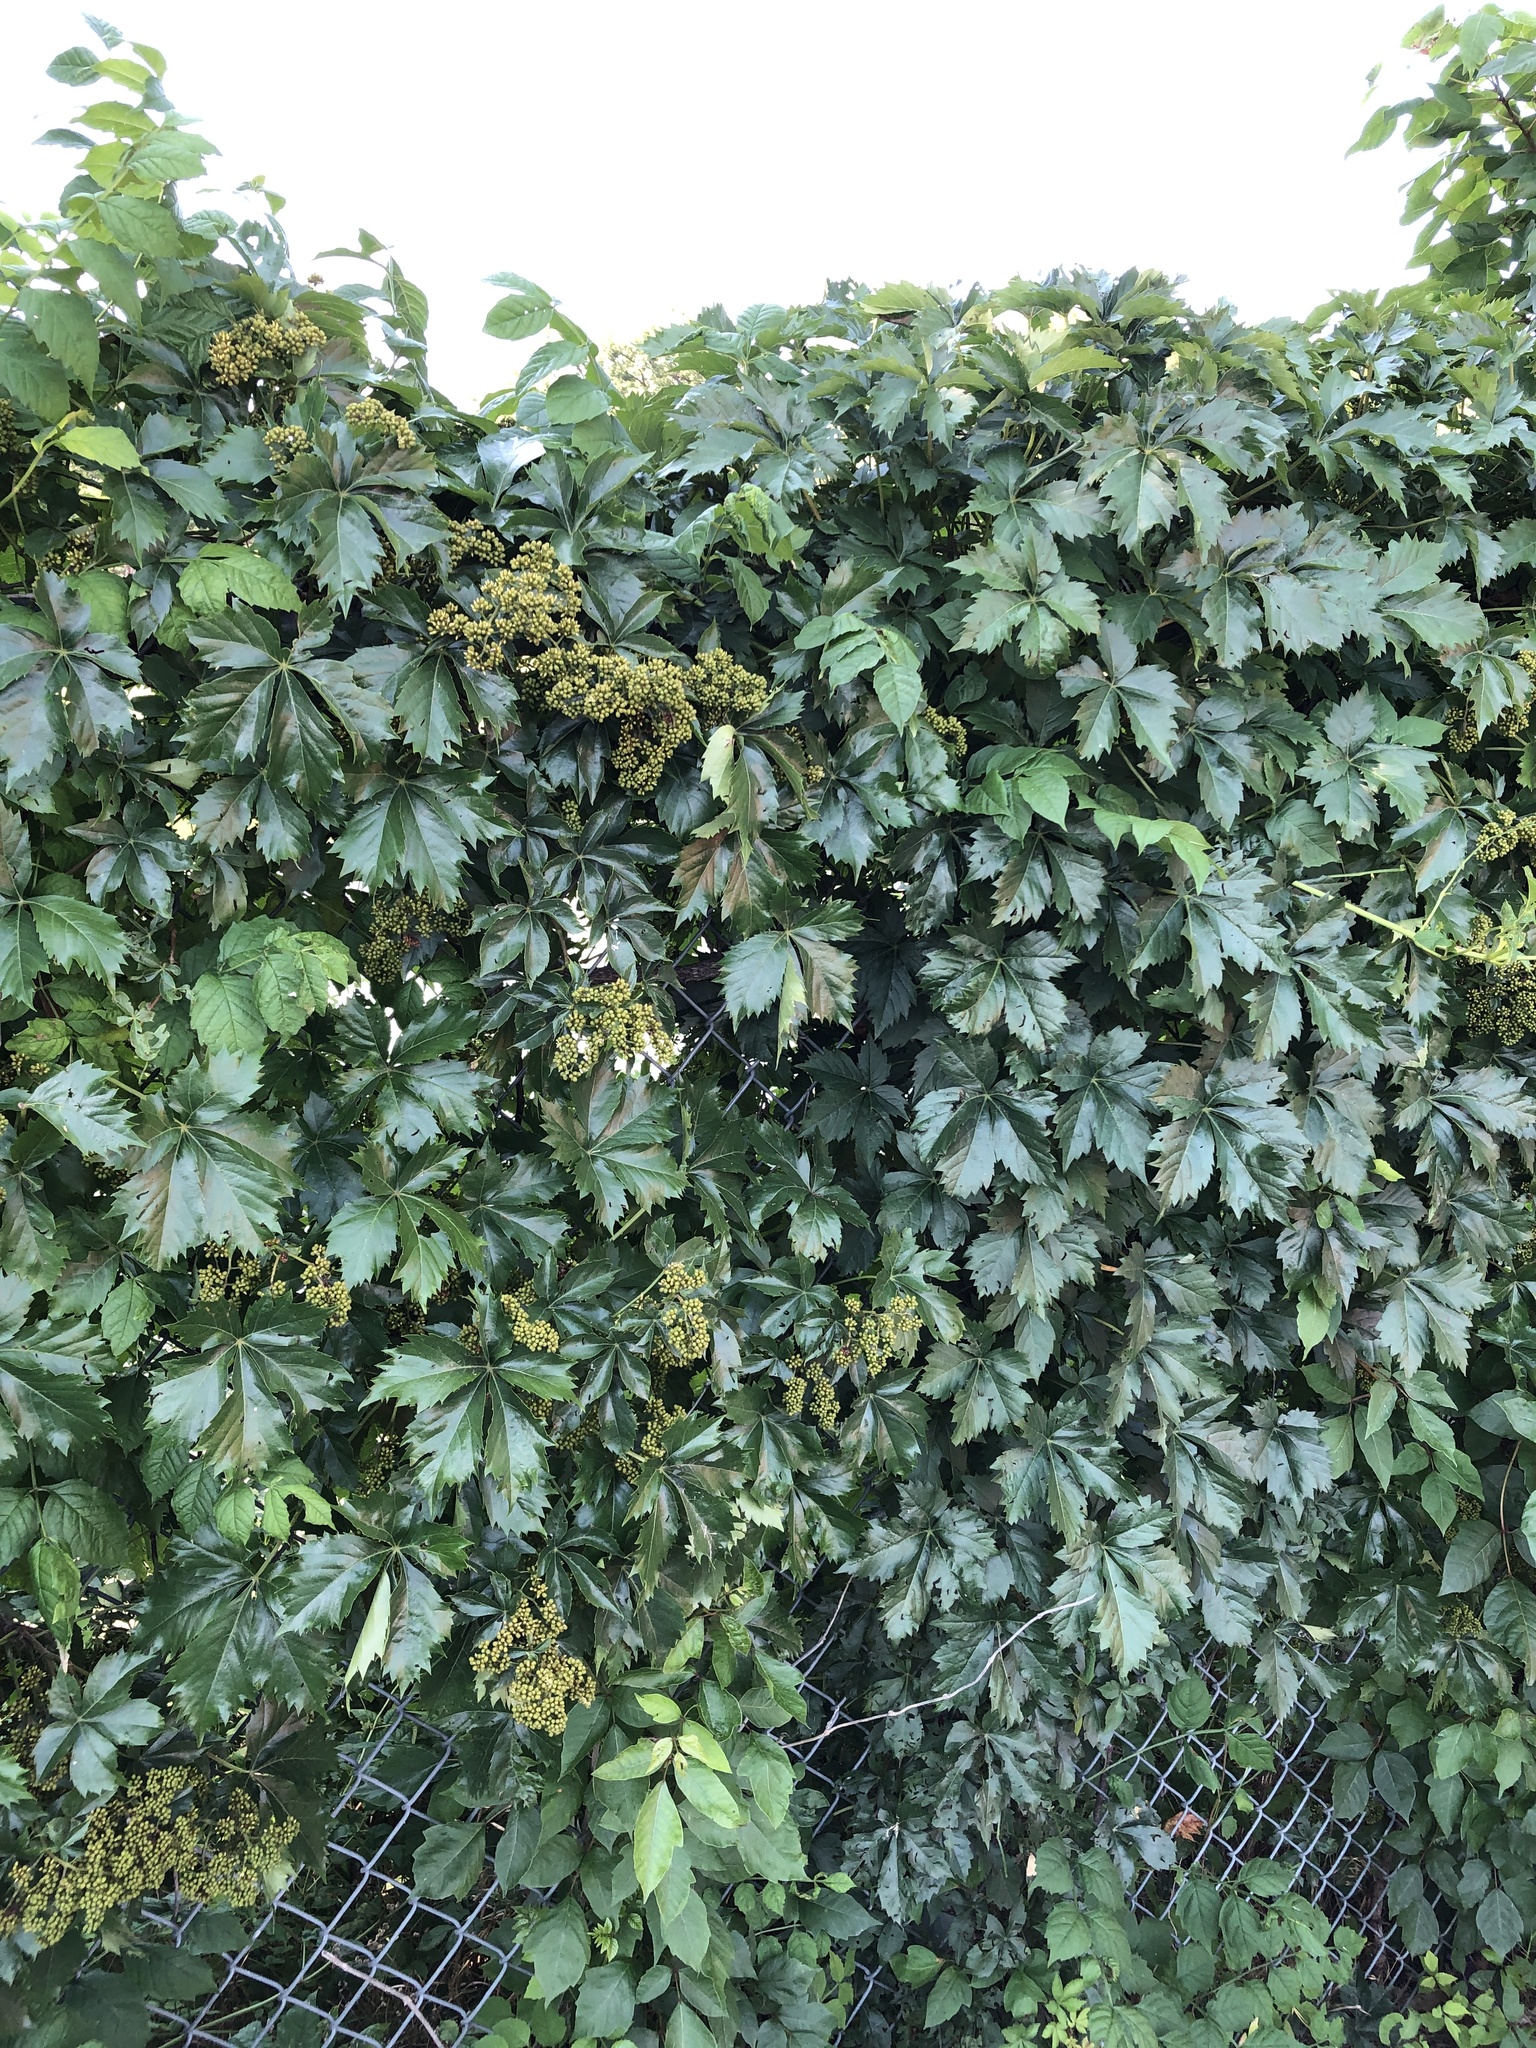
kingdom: Plantae
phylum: Tracheophyta
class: Magnoliopsida
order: Vitales
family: Vitaceae
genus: Parthenocissus
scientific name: Parthenocissus quinquefolia
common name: Virginia-creeper
